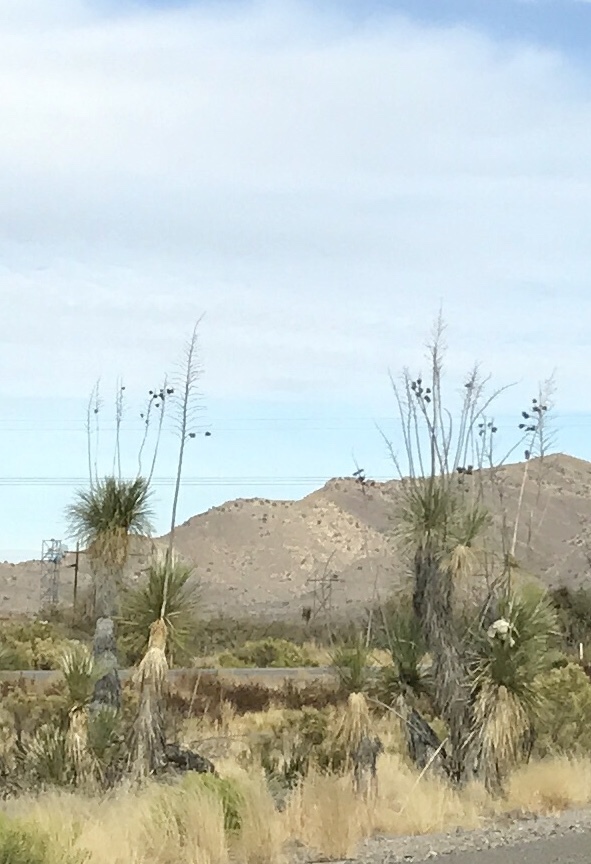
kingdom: Plantae
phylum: Tracheophyta
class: Liliopsida
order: Asparagales
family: Asparagaceae
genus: Yucca
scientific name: Yucca elata
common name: Palmella
